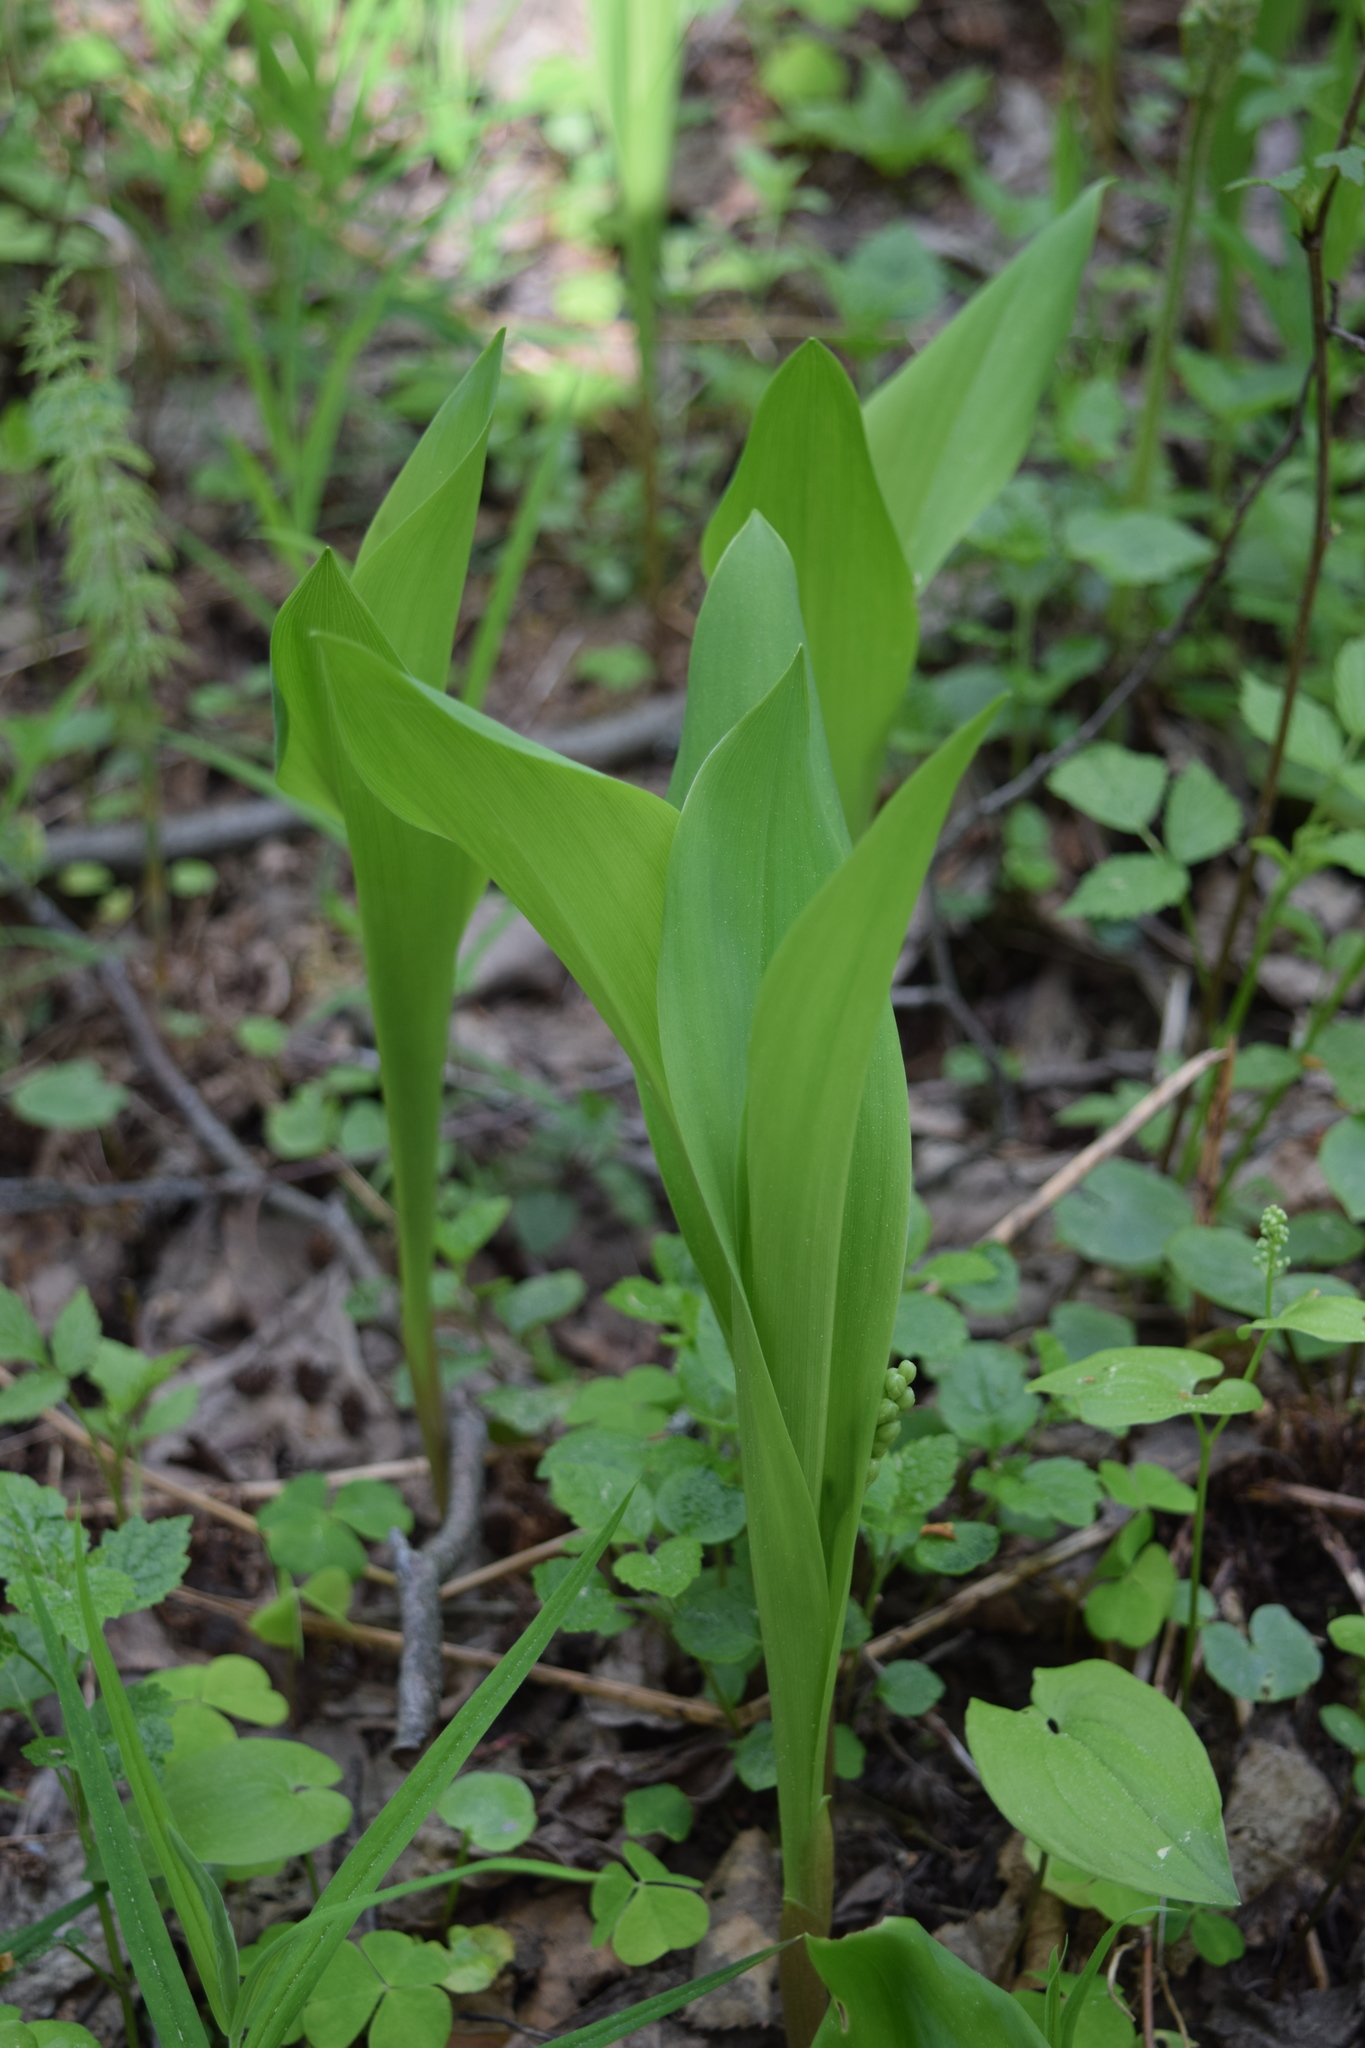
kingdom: Plantae
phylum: Tracheophyta
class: Liliopsida
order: Asparagales
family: Asparagaceae
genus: Convallaria
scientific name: Convallaria majalis
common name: Lily-of-the-valley
